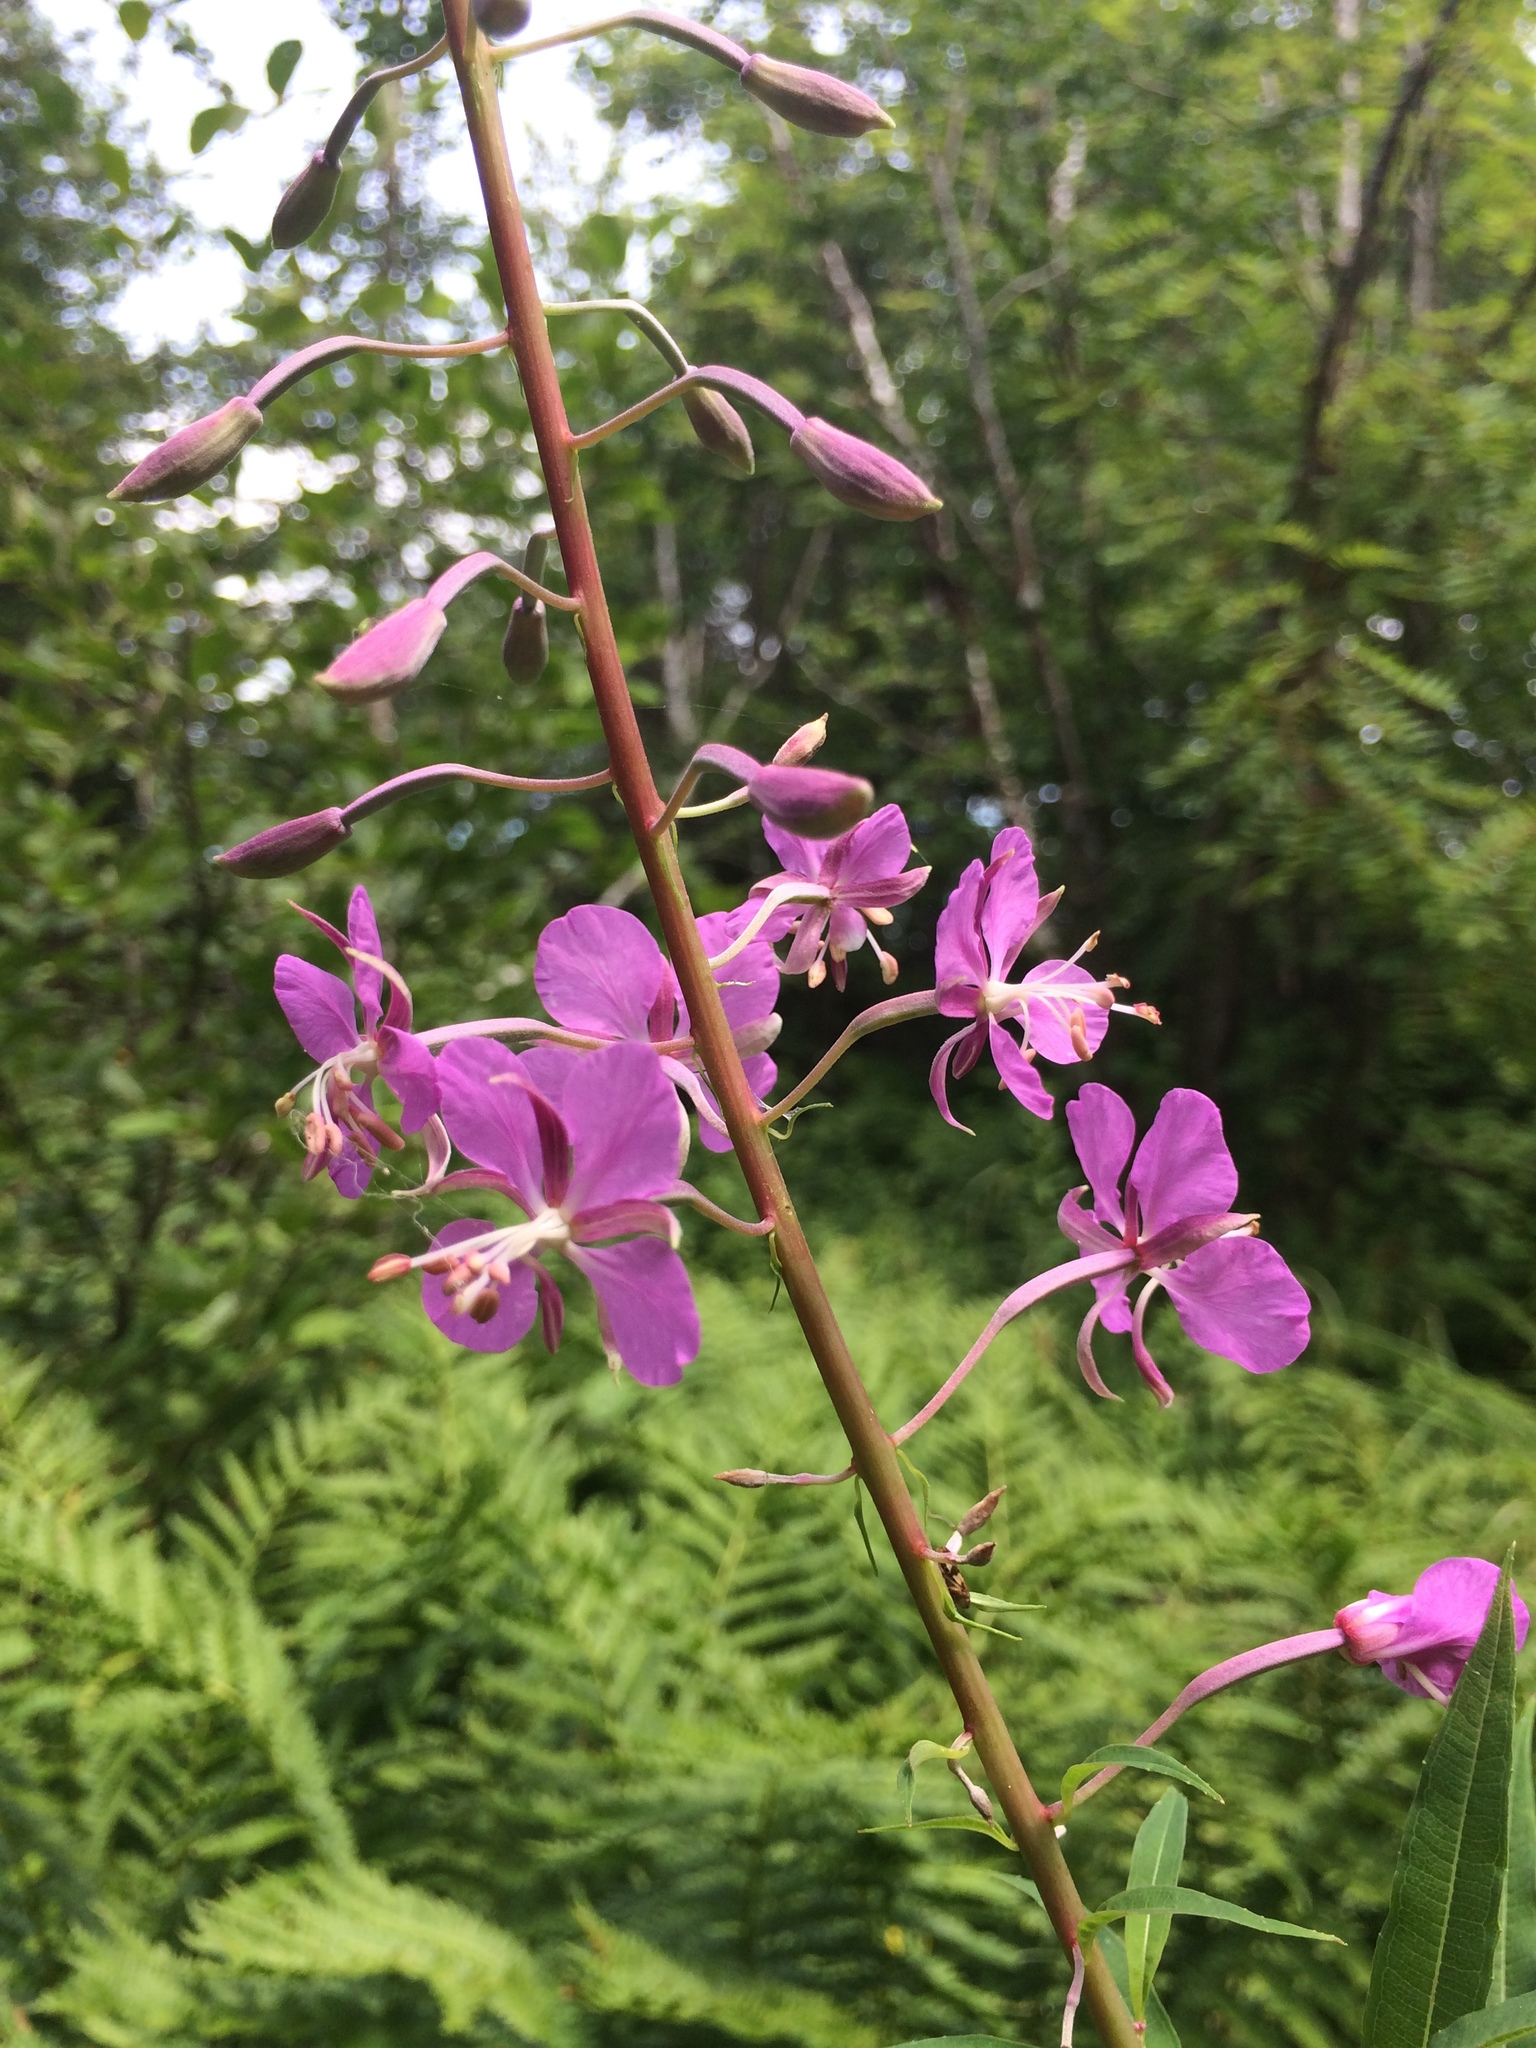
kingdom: Plantae
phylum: Tracheophyta
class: Magnoliopsida
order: Myrtales
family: Onagraceae
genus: Chamaenerion
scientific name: Chamaenerion angustifolium
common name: Fireweed
